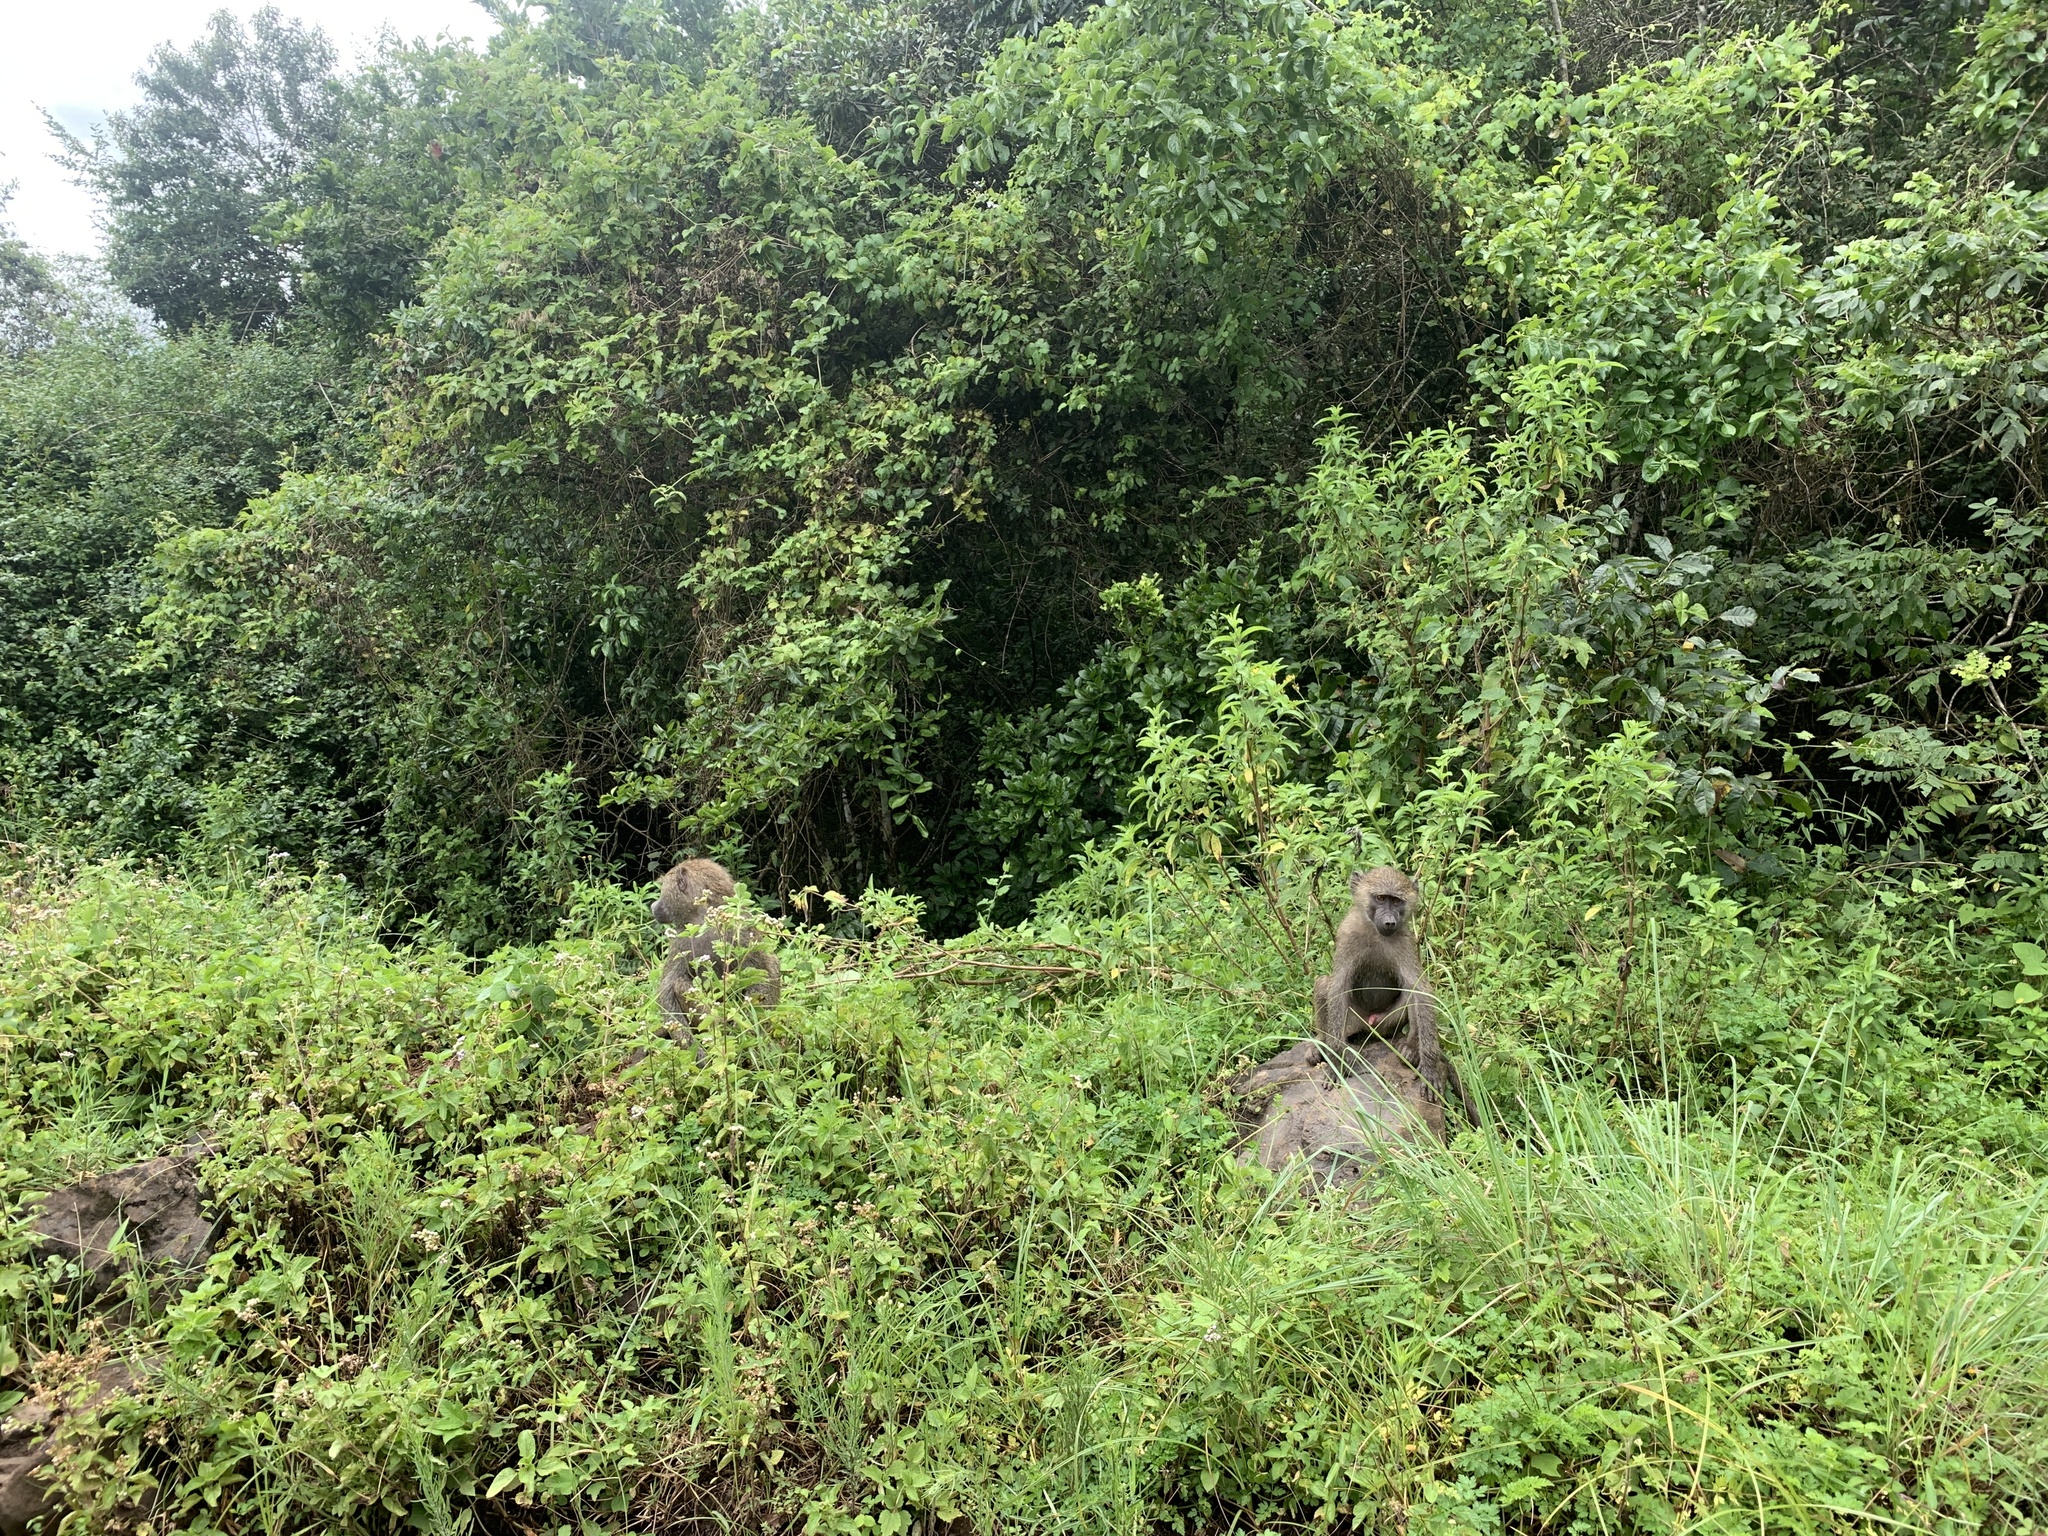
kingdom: Animalia
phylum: Chordata
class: Mammalia
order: Primates
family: Cercopithecidae
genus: Papio
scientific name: Papio anubis
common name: Olive baboon
